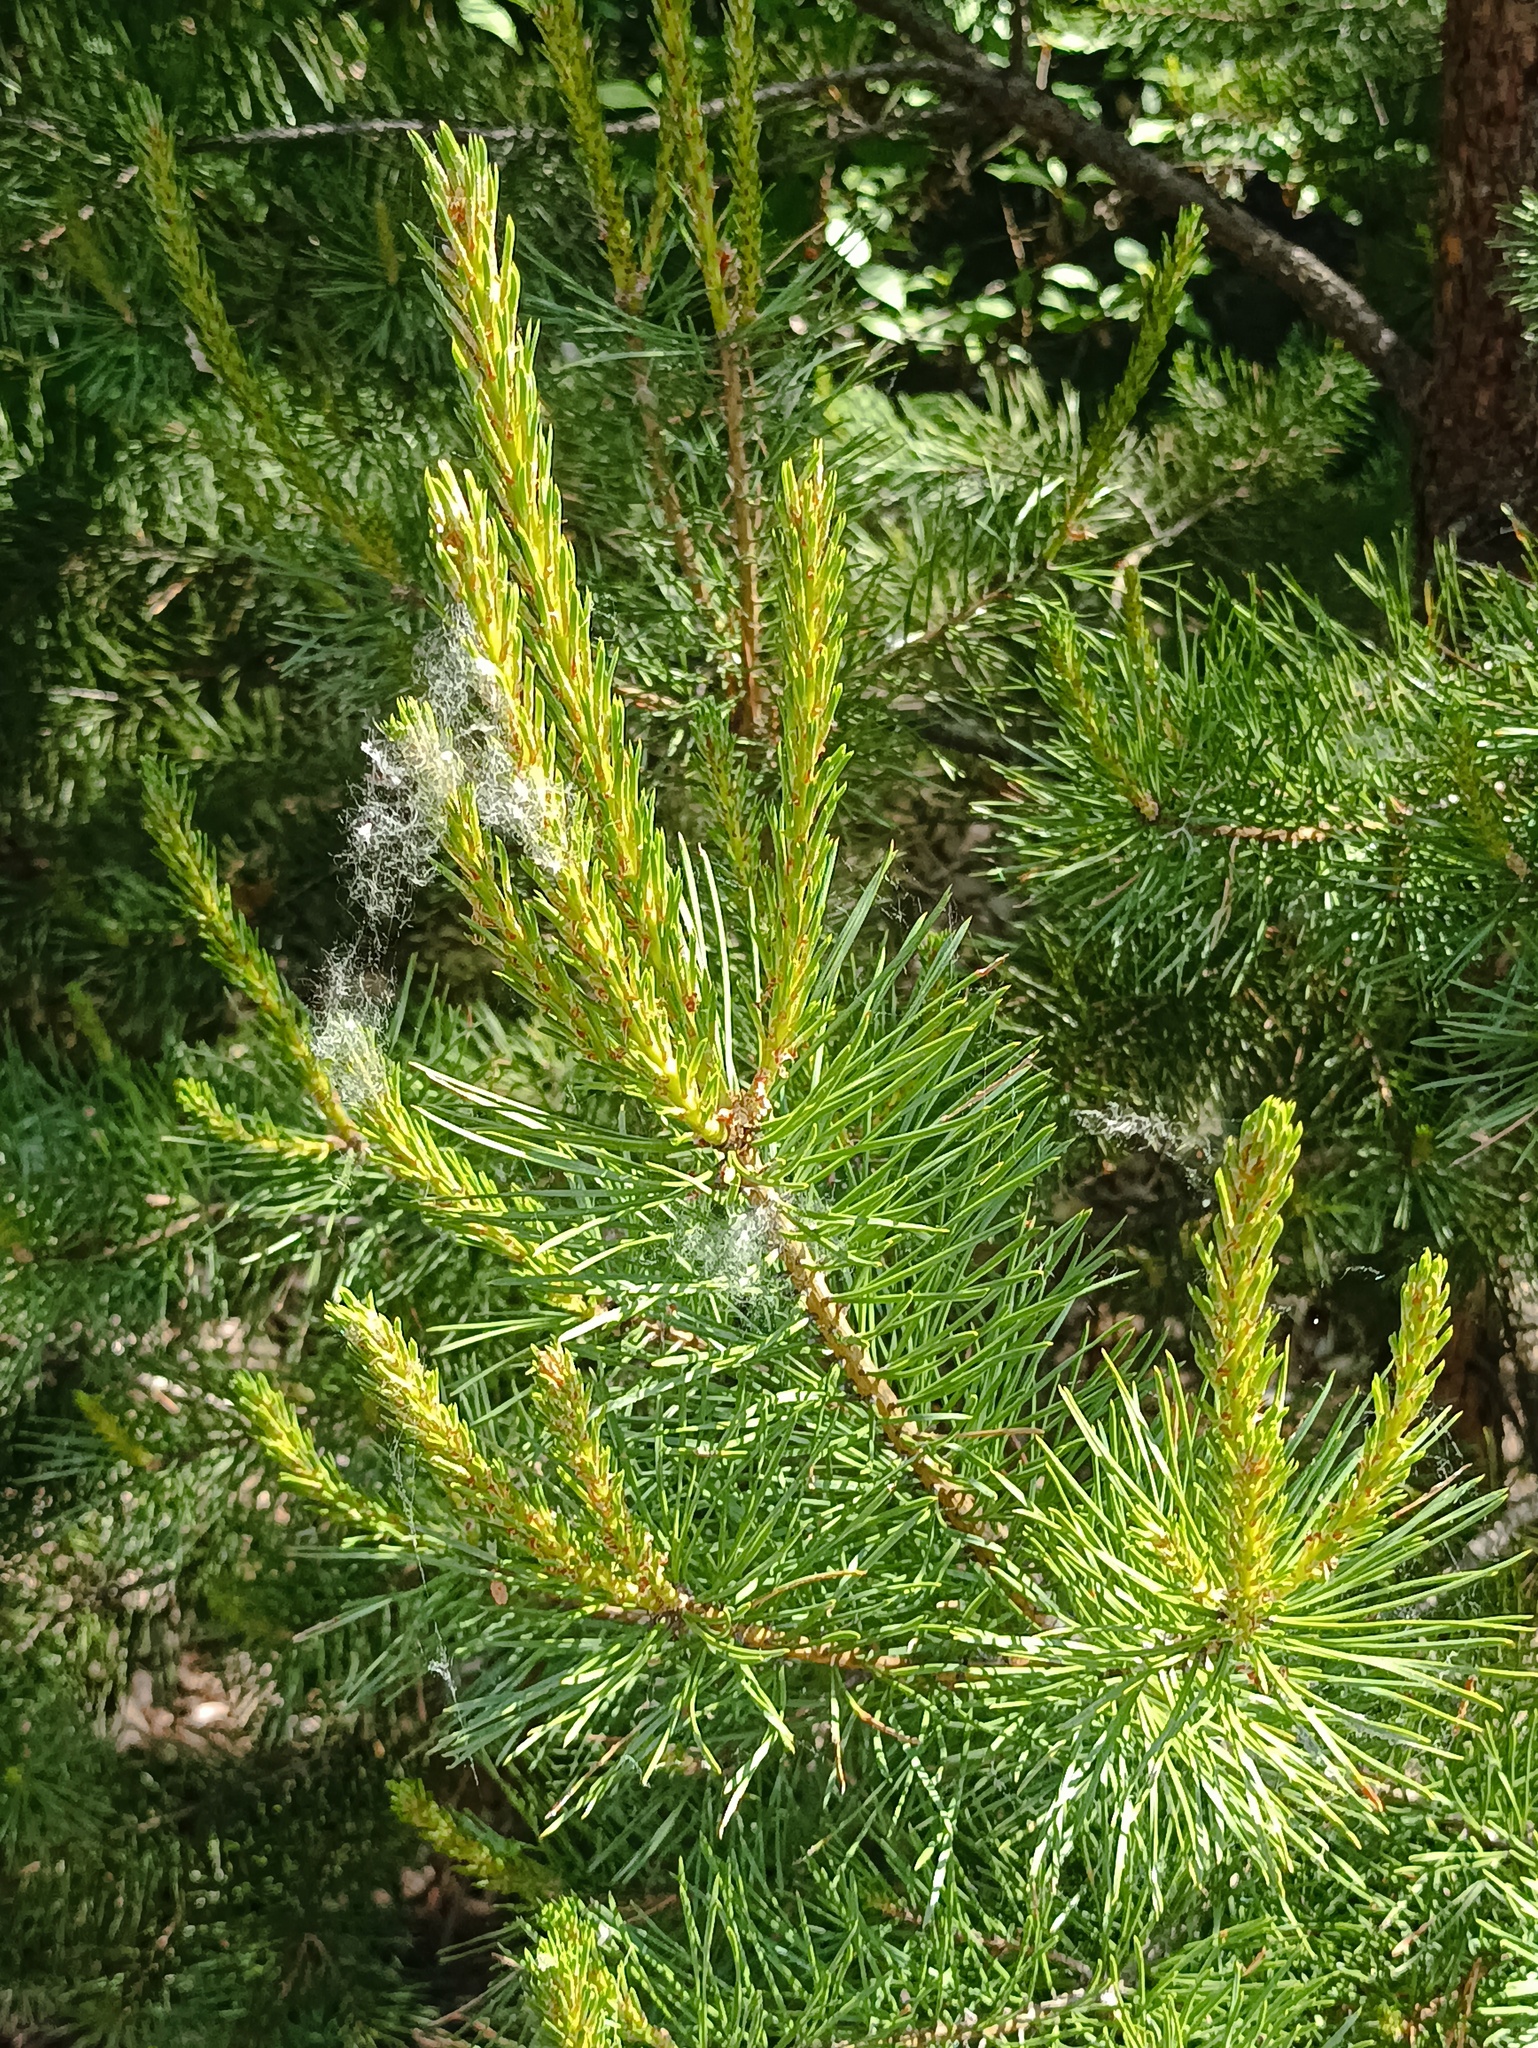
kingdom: Plantae
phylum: Tracheophyta
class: Pinopsida
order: Pinales
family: Pinaceae
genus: Pinus
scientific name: Pinus sylvestris
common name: Scots pine
